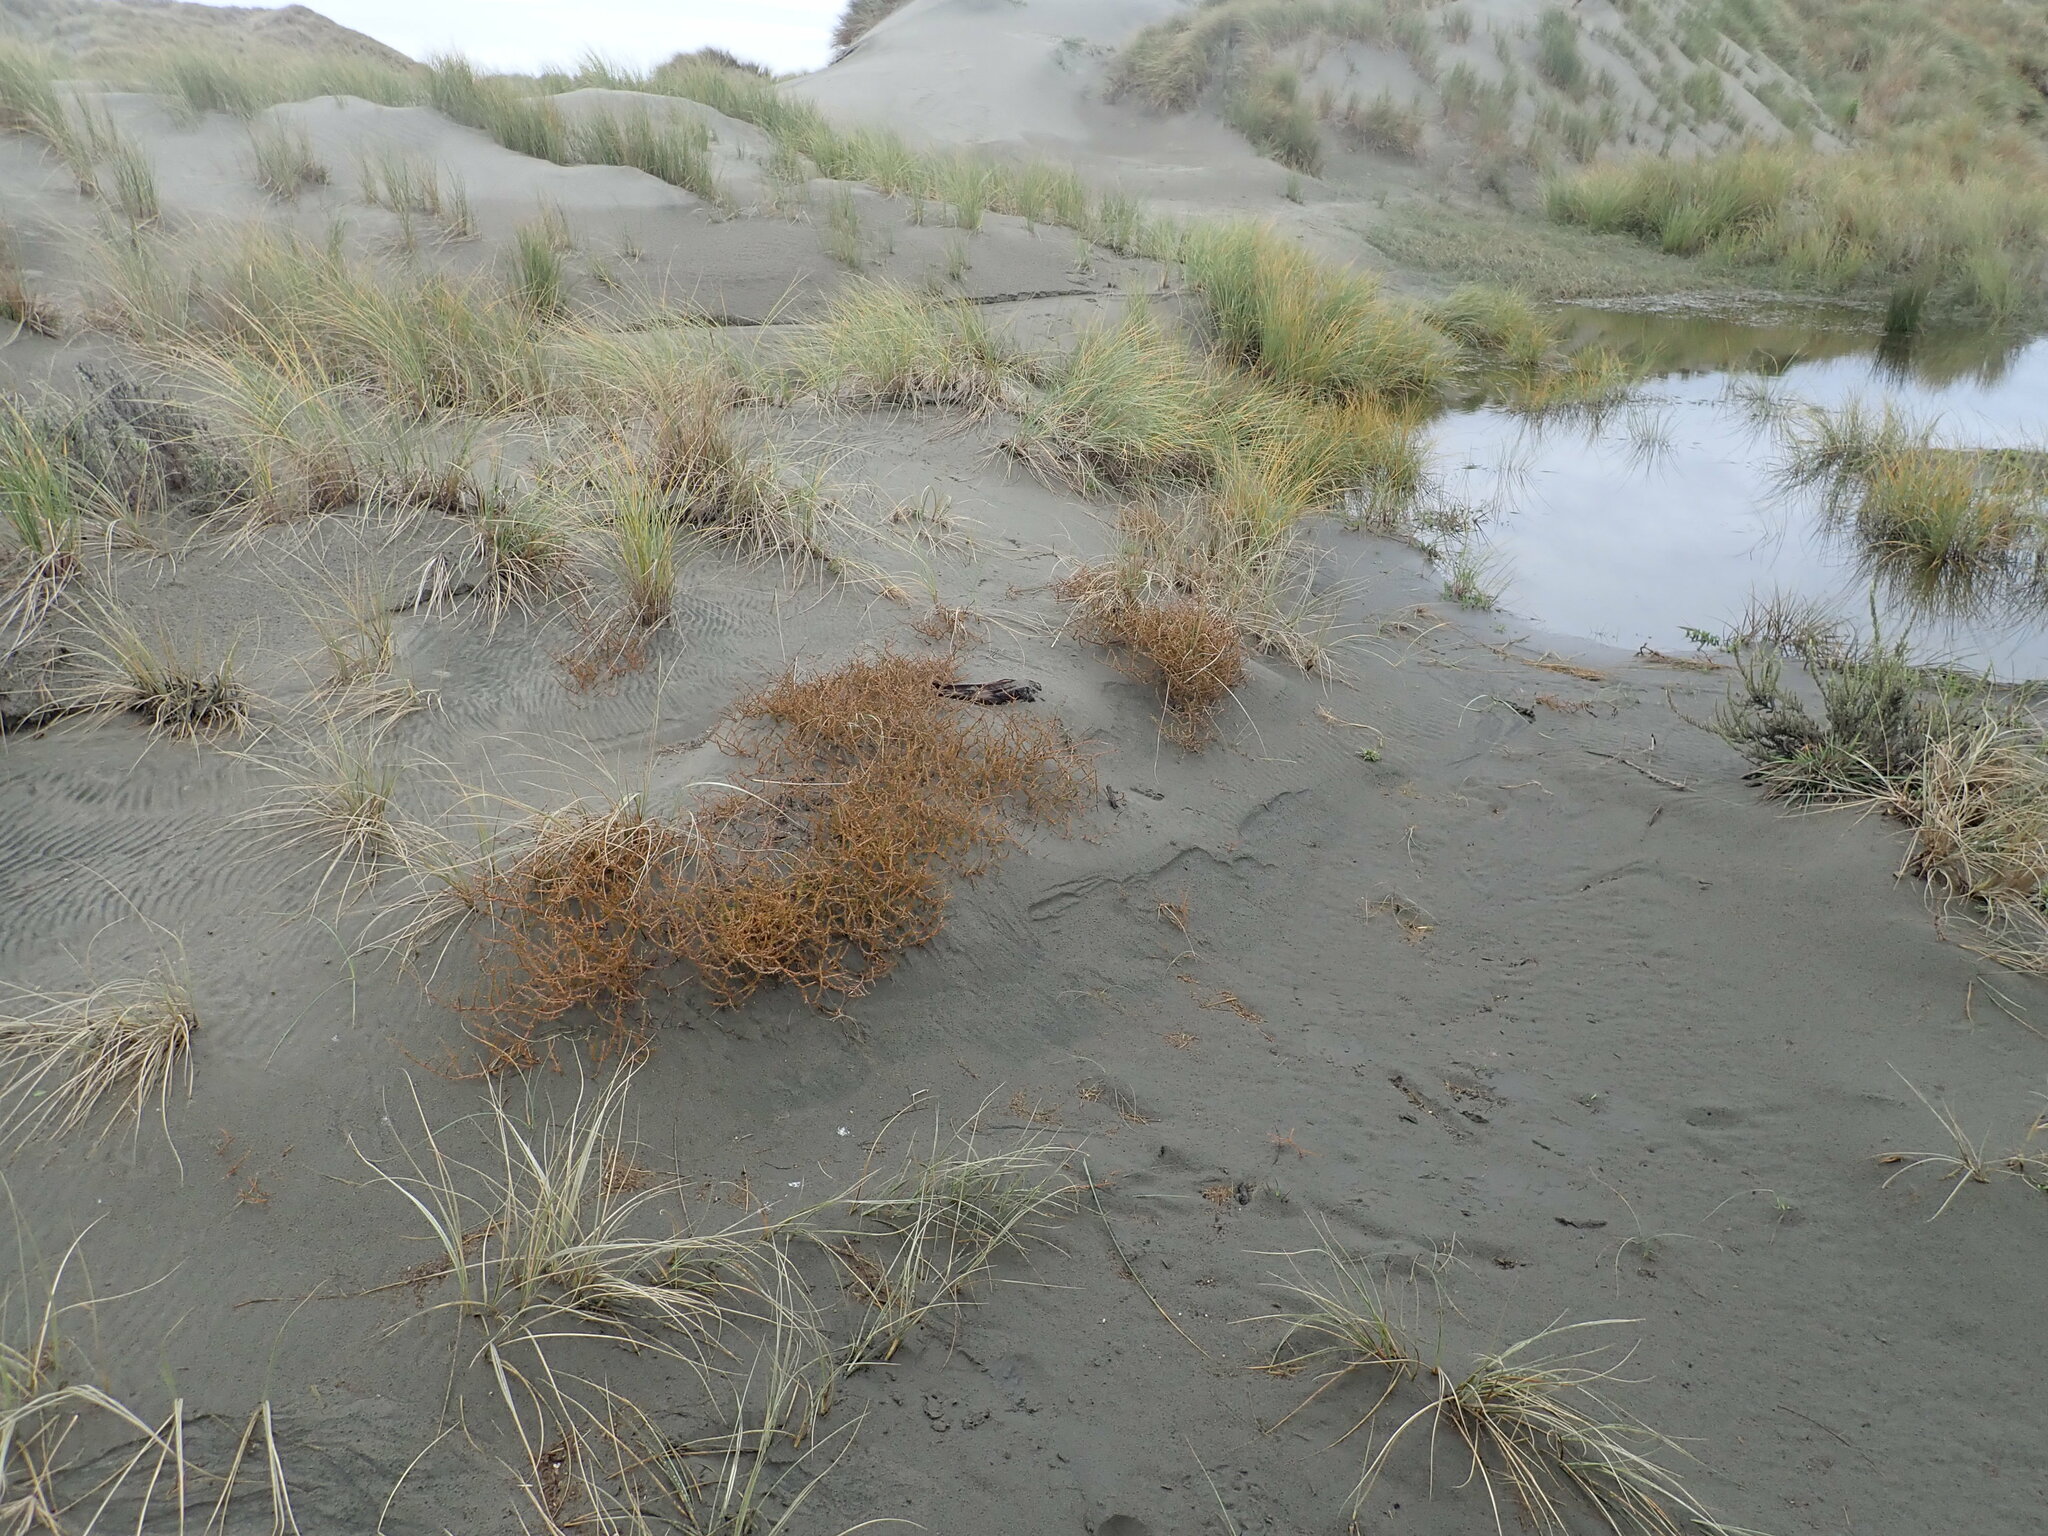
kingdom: Plantae
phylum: Tracheophyta
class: Magnoliopsida
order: Gentianales
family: Rubiaceae
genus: Coprosma
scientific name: Coprosma acerosa
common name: Sand coprosma
